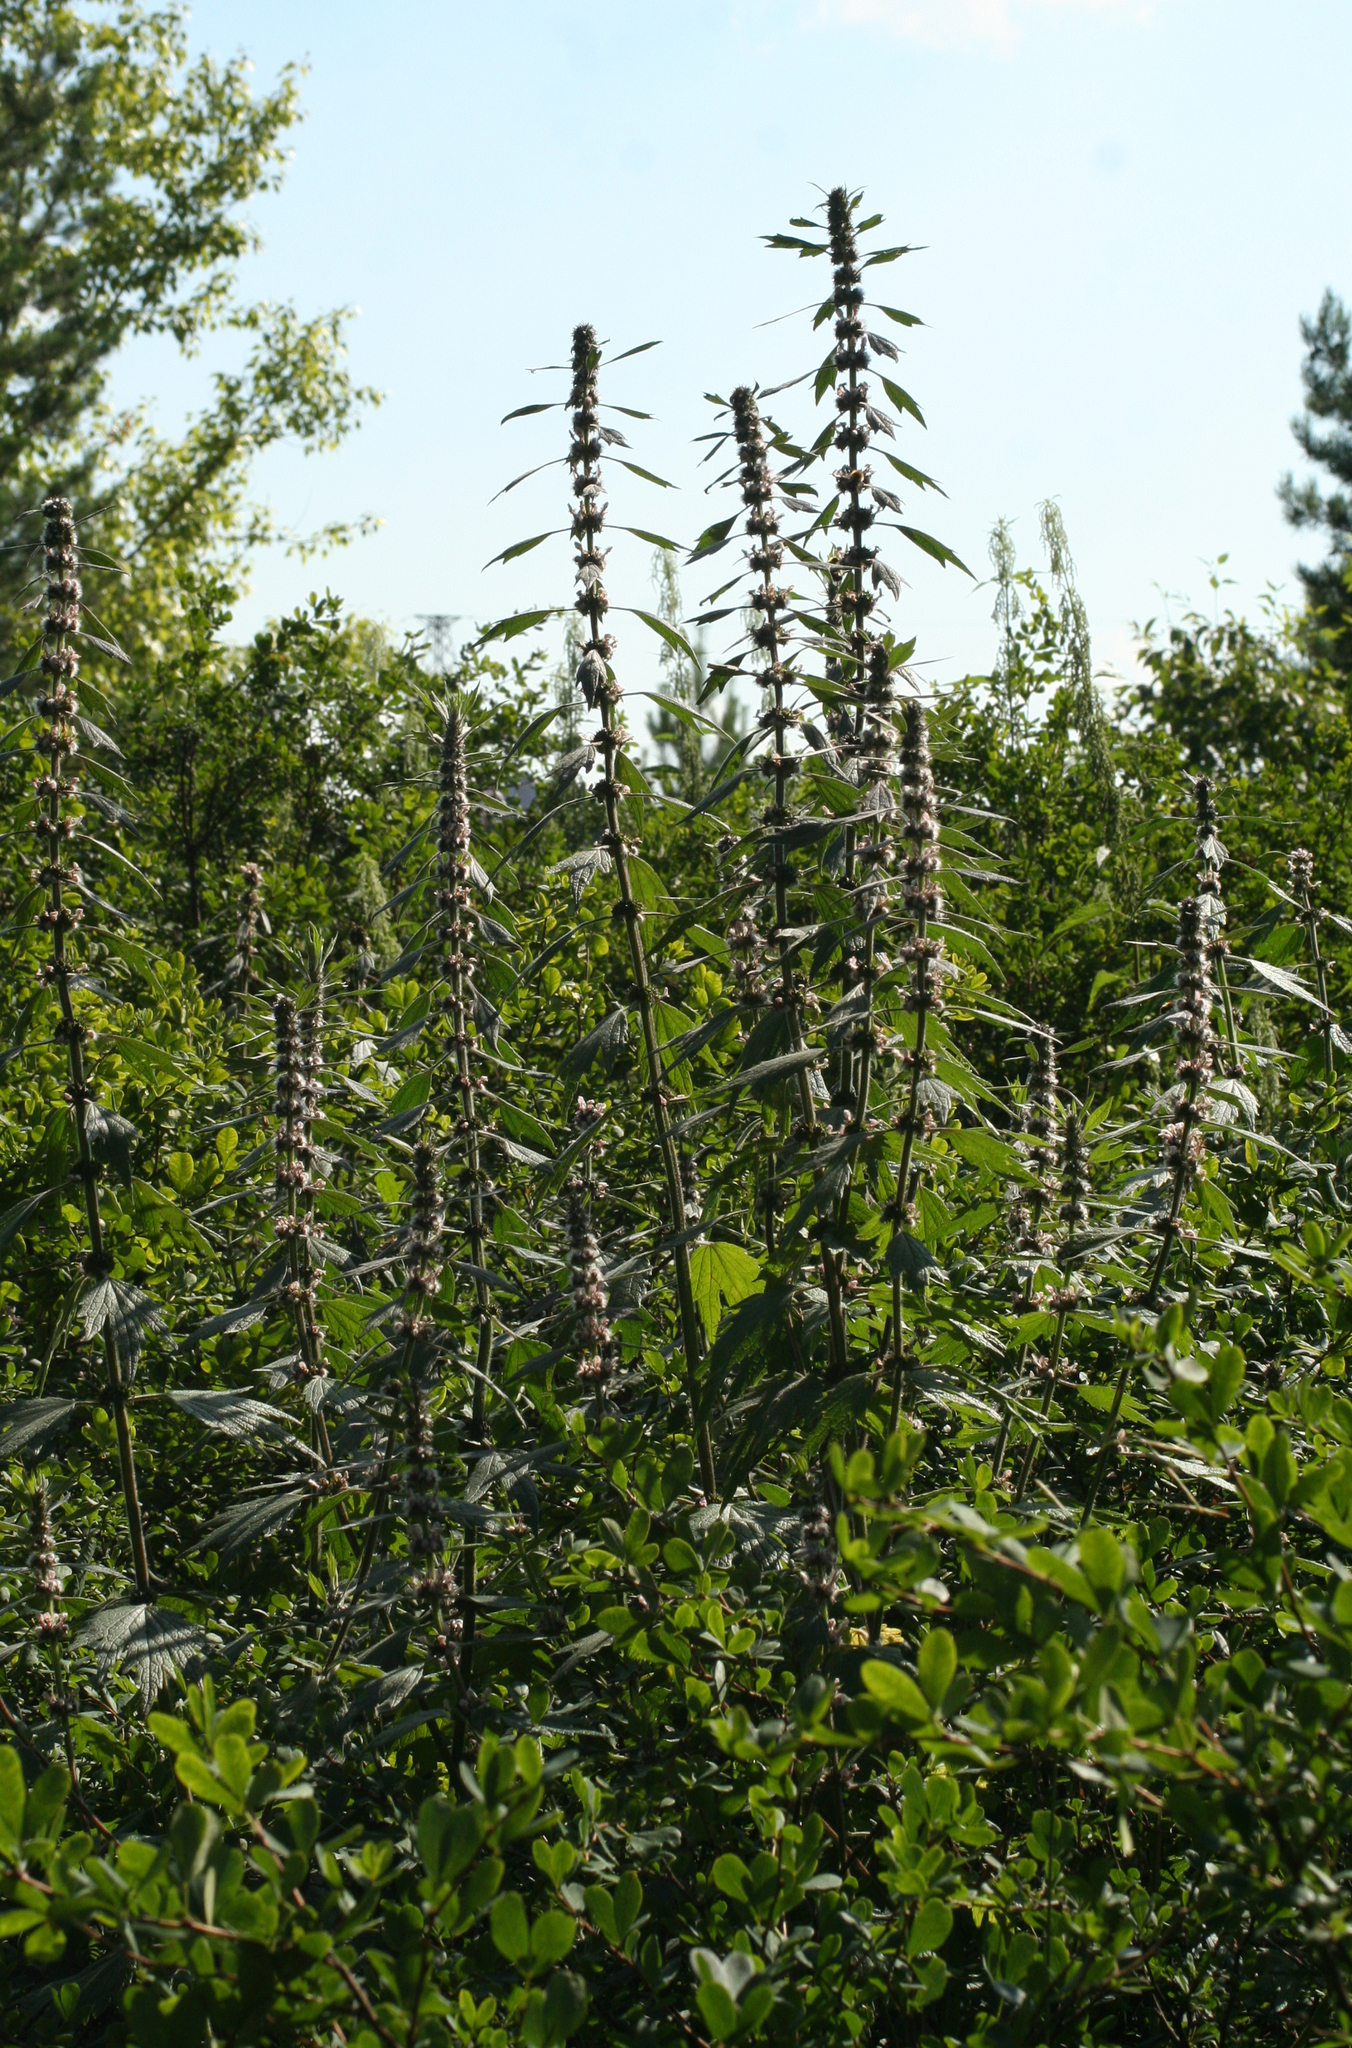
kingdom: Plantae
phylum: Tracheophyta
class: Magnoliopsida
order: Lamiales
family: Lamiaceae
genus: Leonurus
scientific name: Leonurus quinquelobatus
